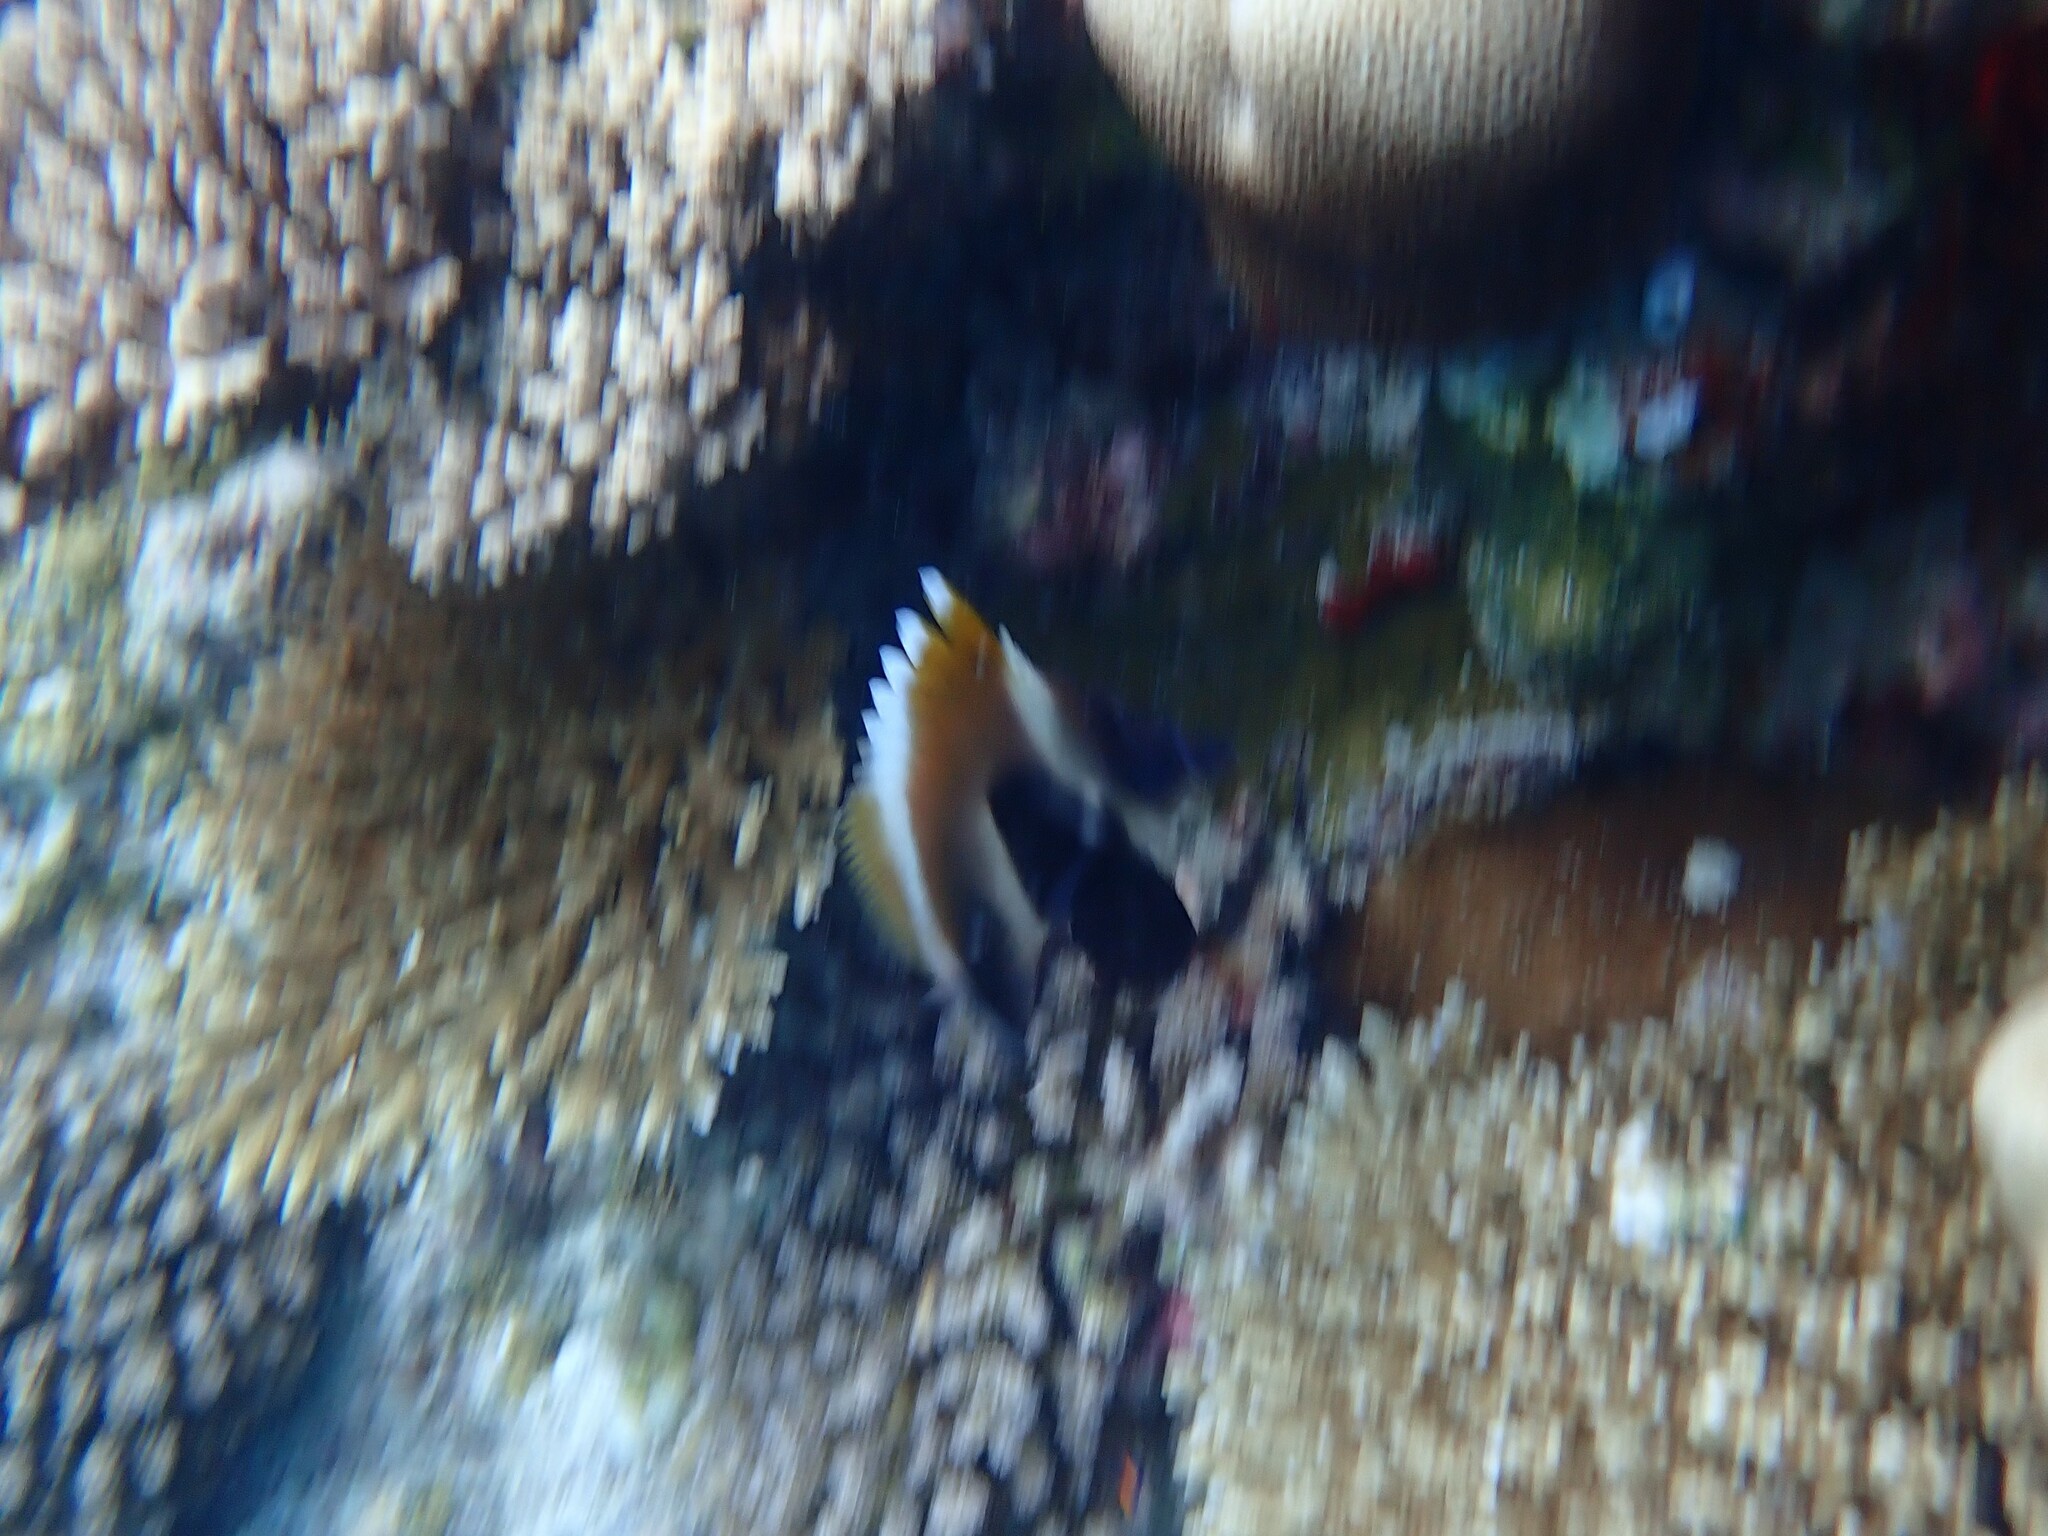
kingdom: Animalia
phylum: Chordata
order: Perciformes
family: Chaetodontidae
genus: Heniochus
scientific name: Heniochus pleurotaenia
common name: Indian ocean bannerfish
